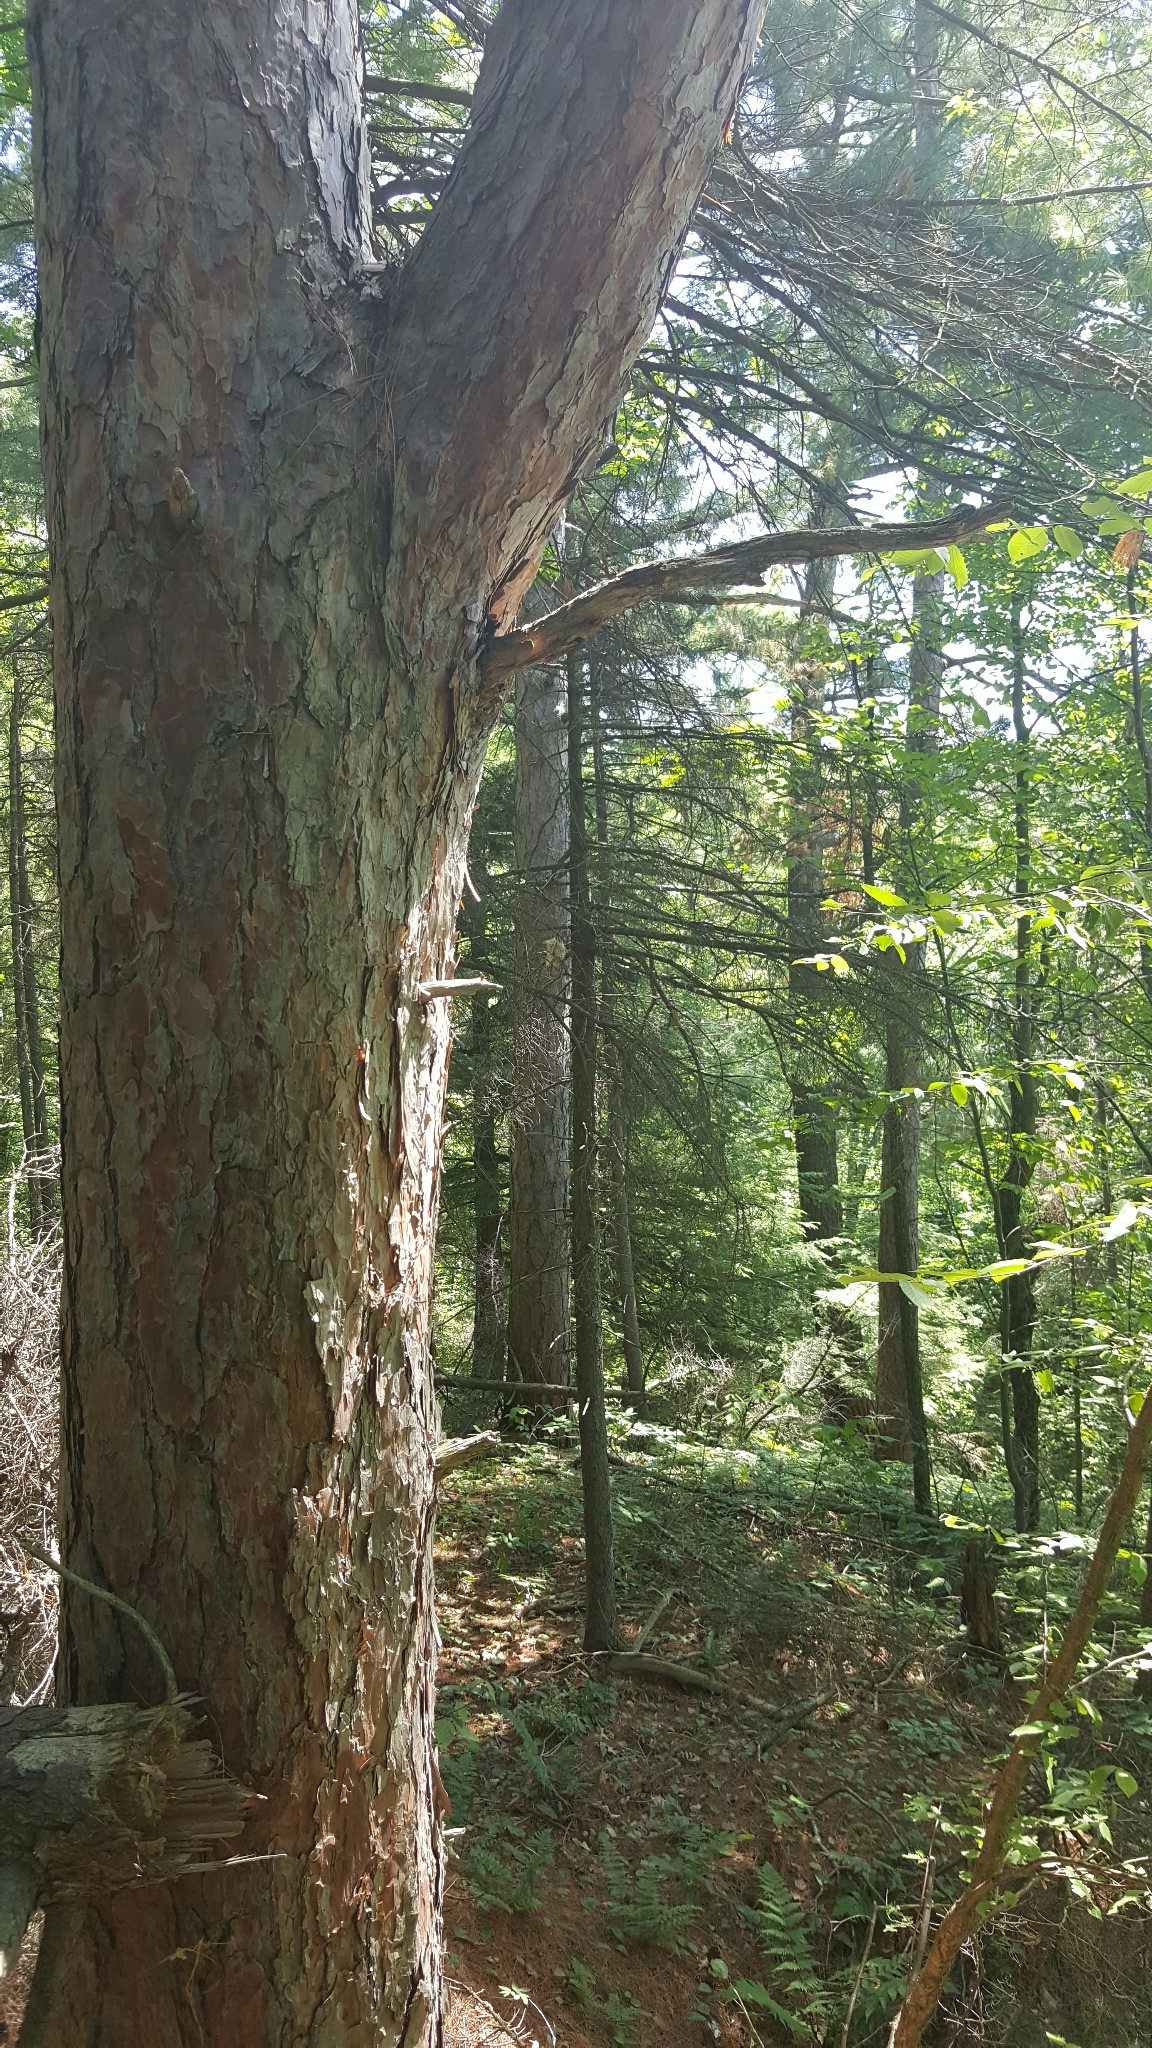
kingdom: Plantae
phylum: Tracheophyta
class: Pinopsida
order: Pinales
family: Pinaceae
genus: Pinus
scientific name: Pinus resinosa
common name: Norway pine
